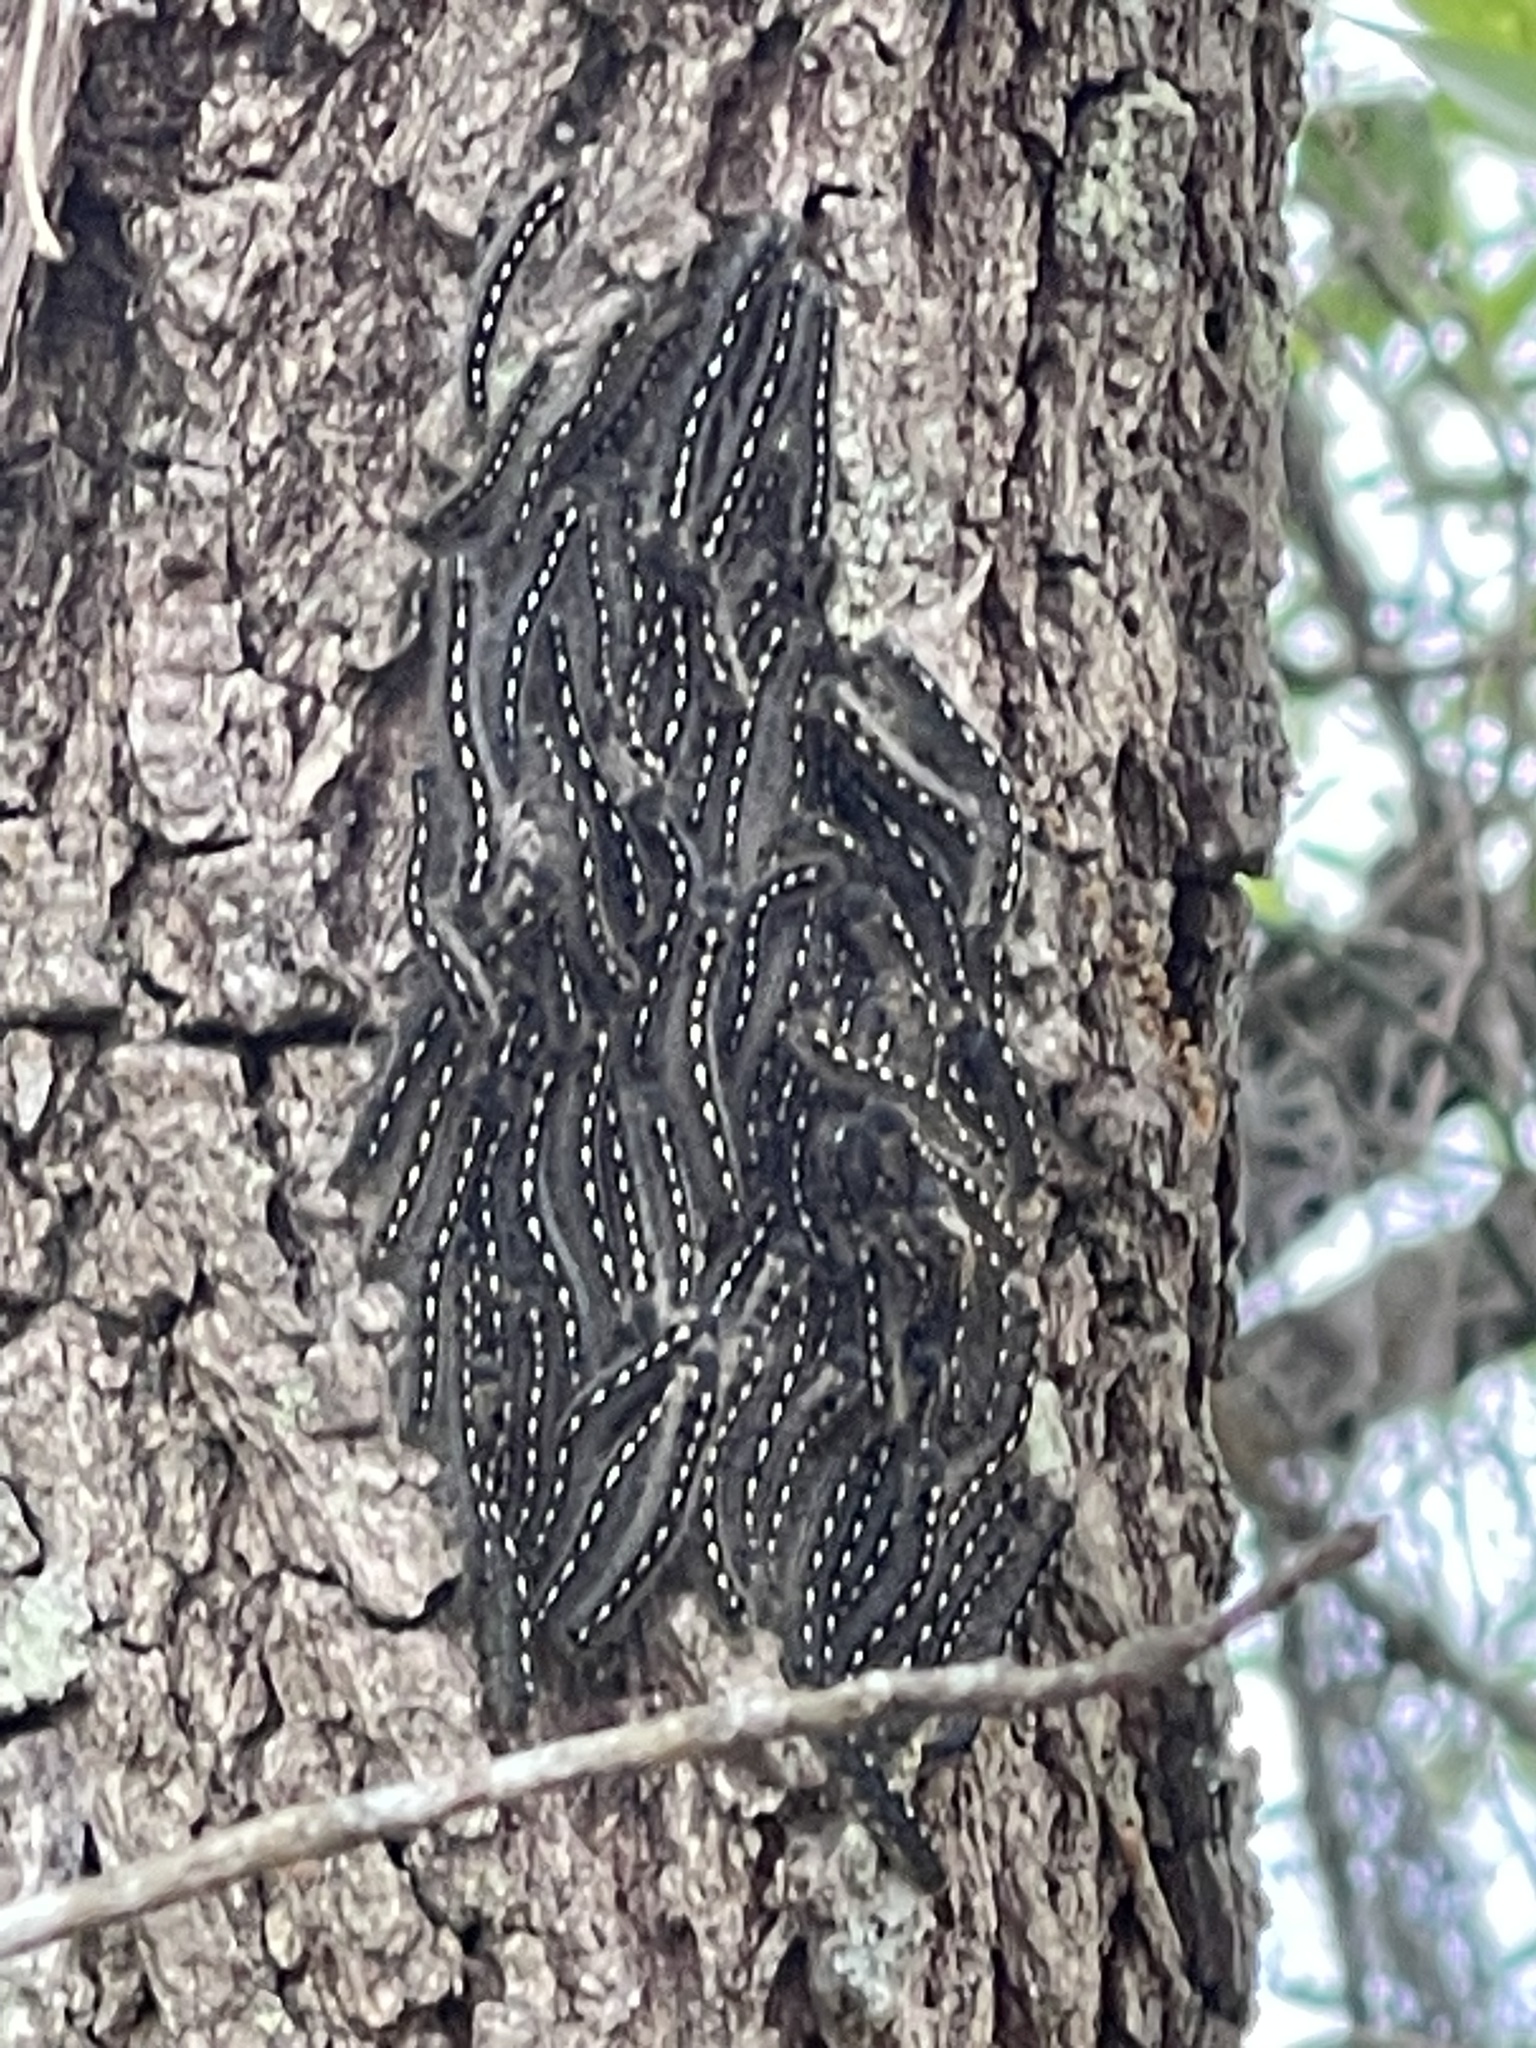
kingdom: Animalia
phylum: Arthropoda
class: Insecta
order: Lepidoptera
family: Lasiocampidae
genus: Malacosoma
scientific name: Malacosoma disstria
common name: Forest tent caterpillar
